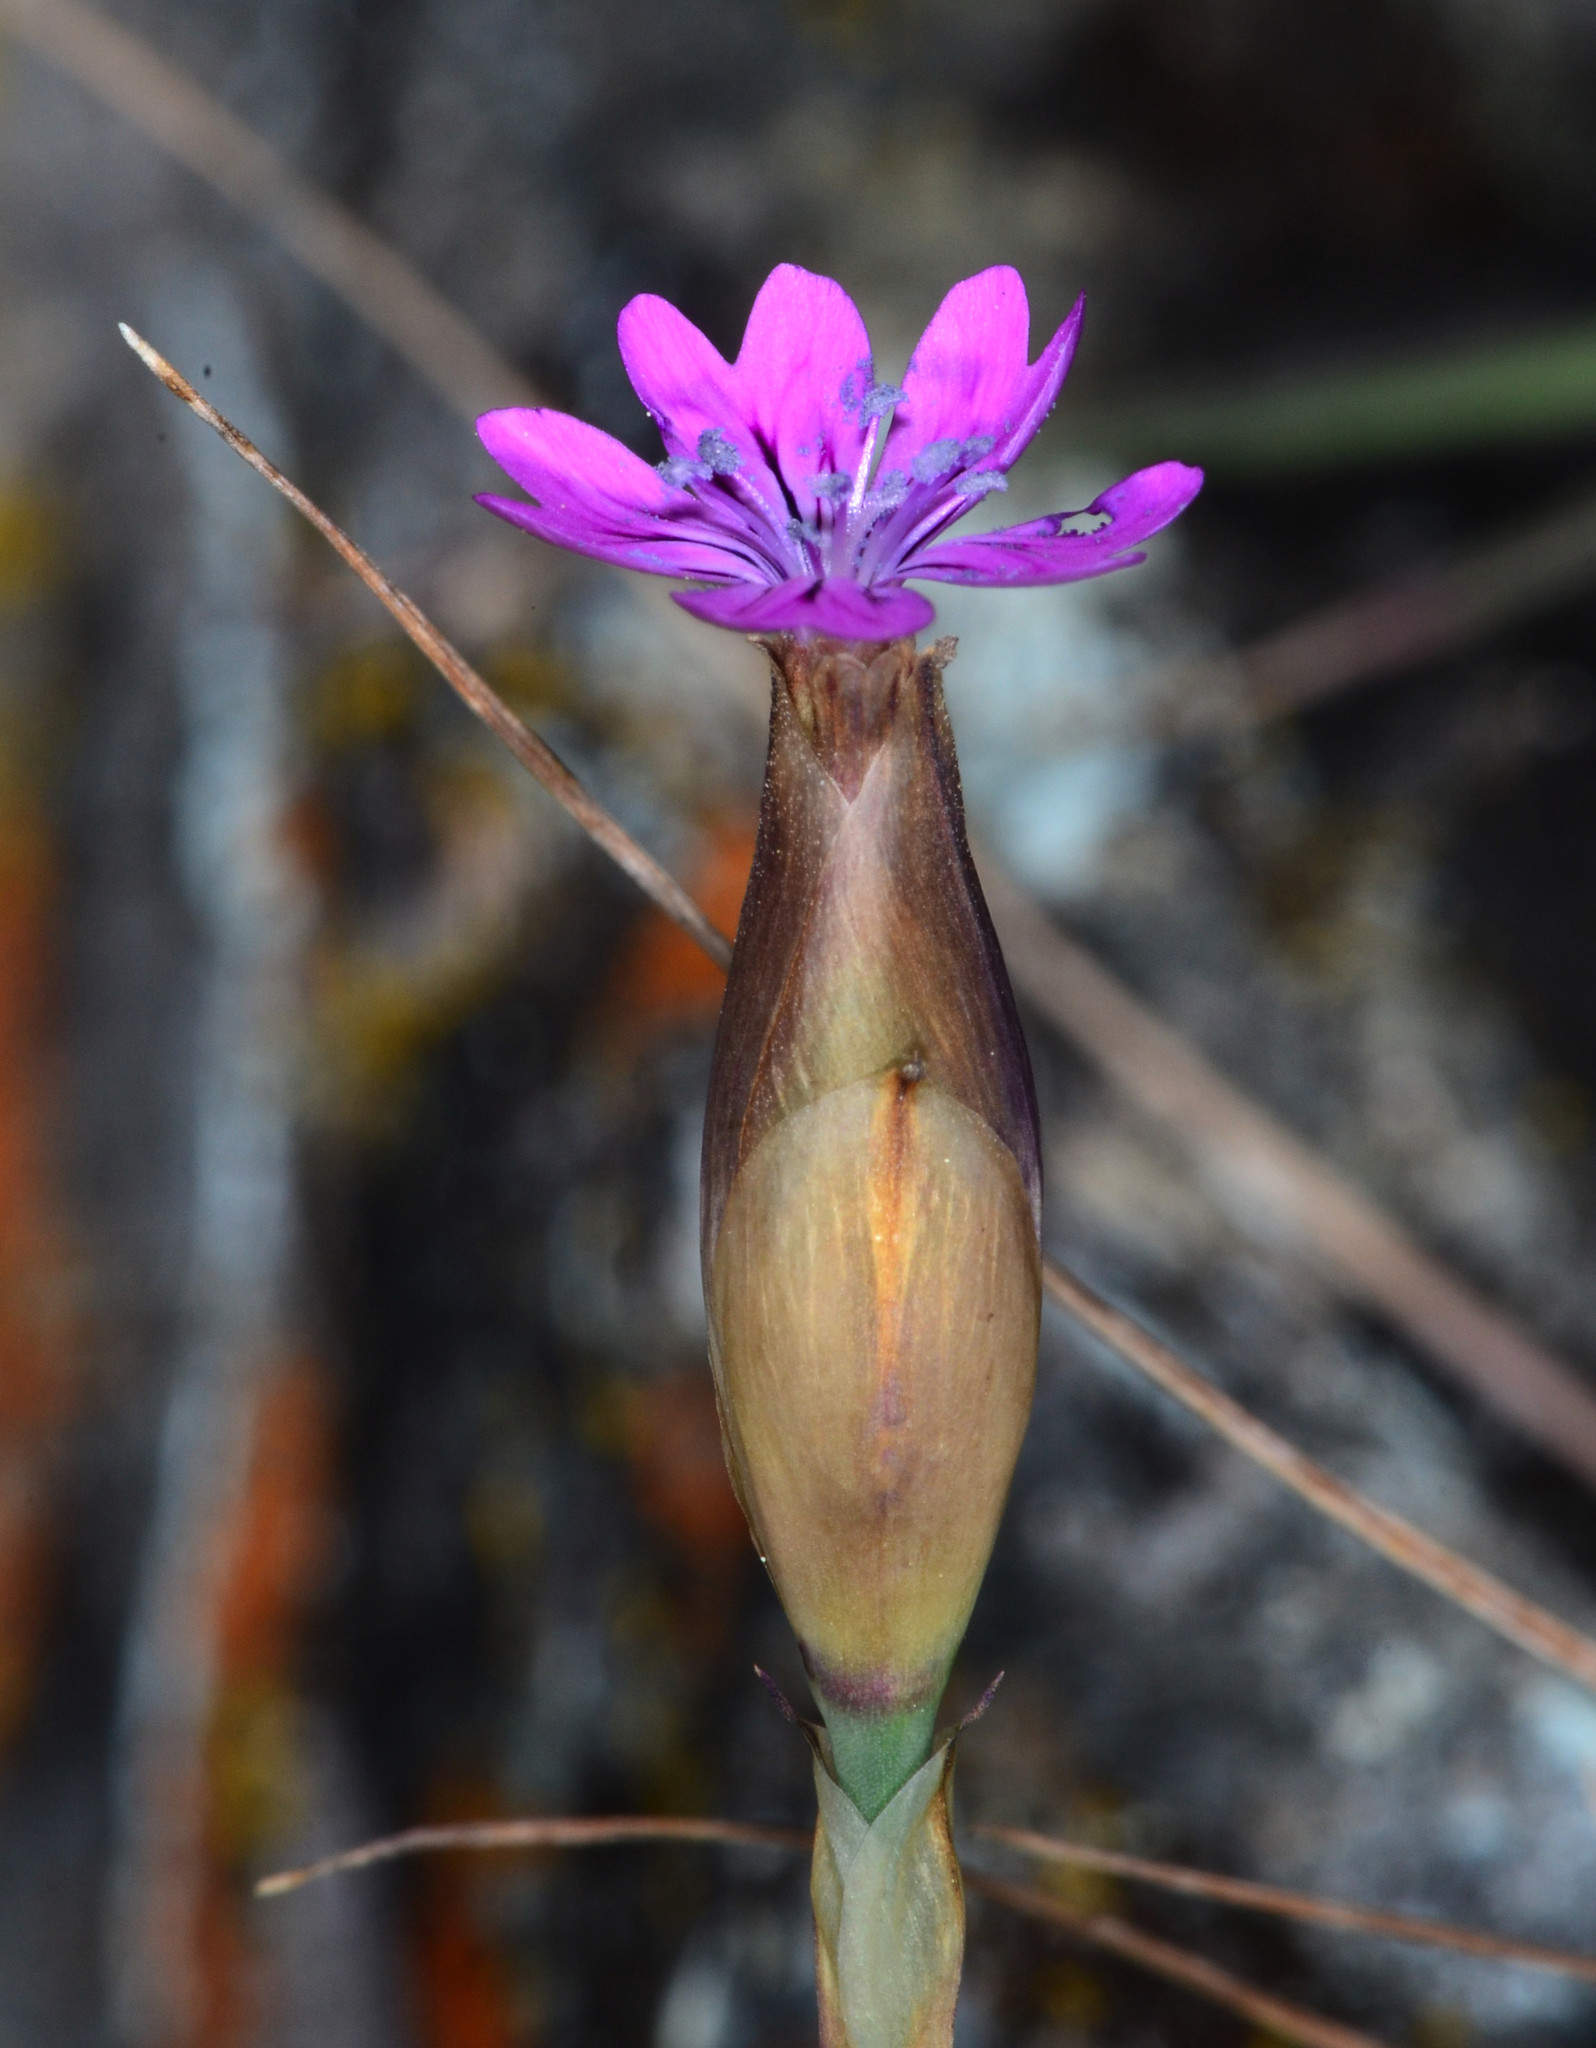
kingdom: Plantae
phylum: Tracheophyta
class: Magnoliopsida
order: Caryophyllales
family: Caryophyllaceae
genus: Petrorhagia
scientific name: Petrorhagia dubia
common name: Hairypink
